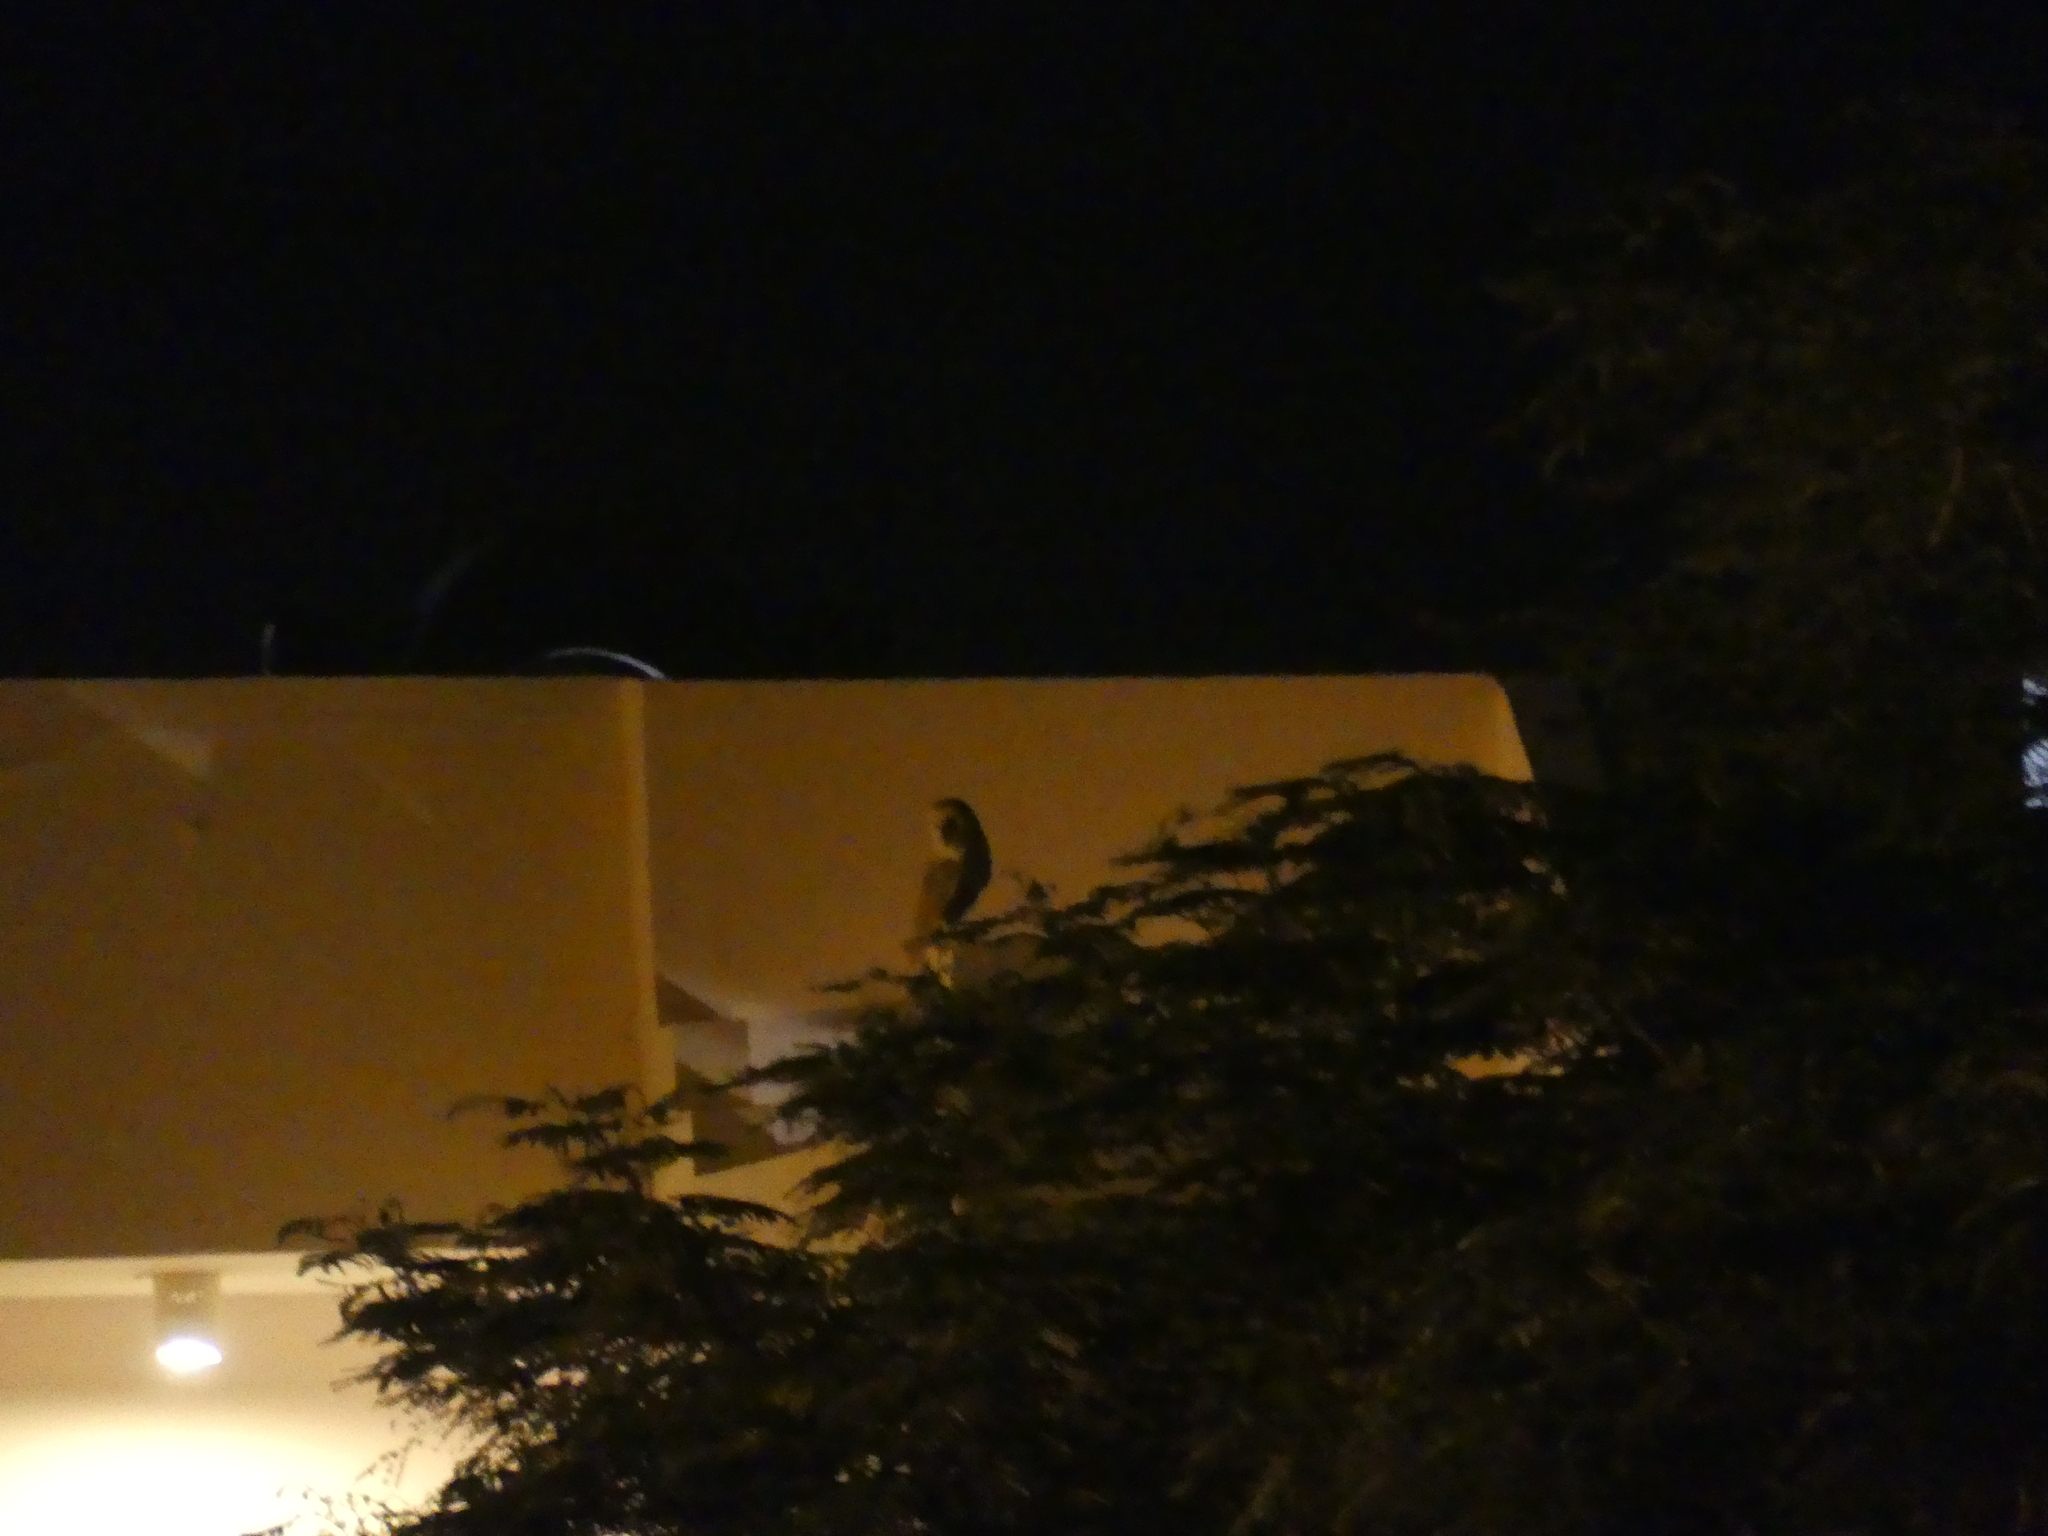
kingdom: Animalia
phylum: Chordata
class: Aves
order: Strigiformes
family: Tytonidae
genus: Tyto
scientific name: Tyto alba
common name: Barn owl
